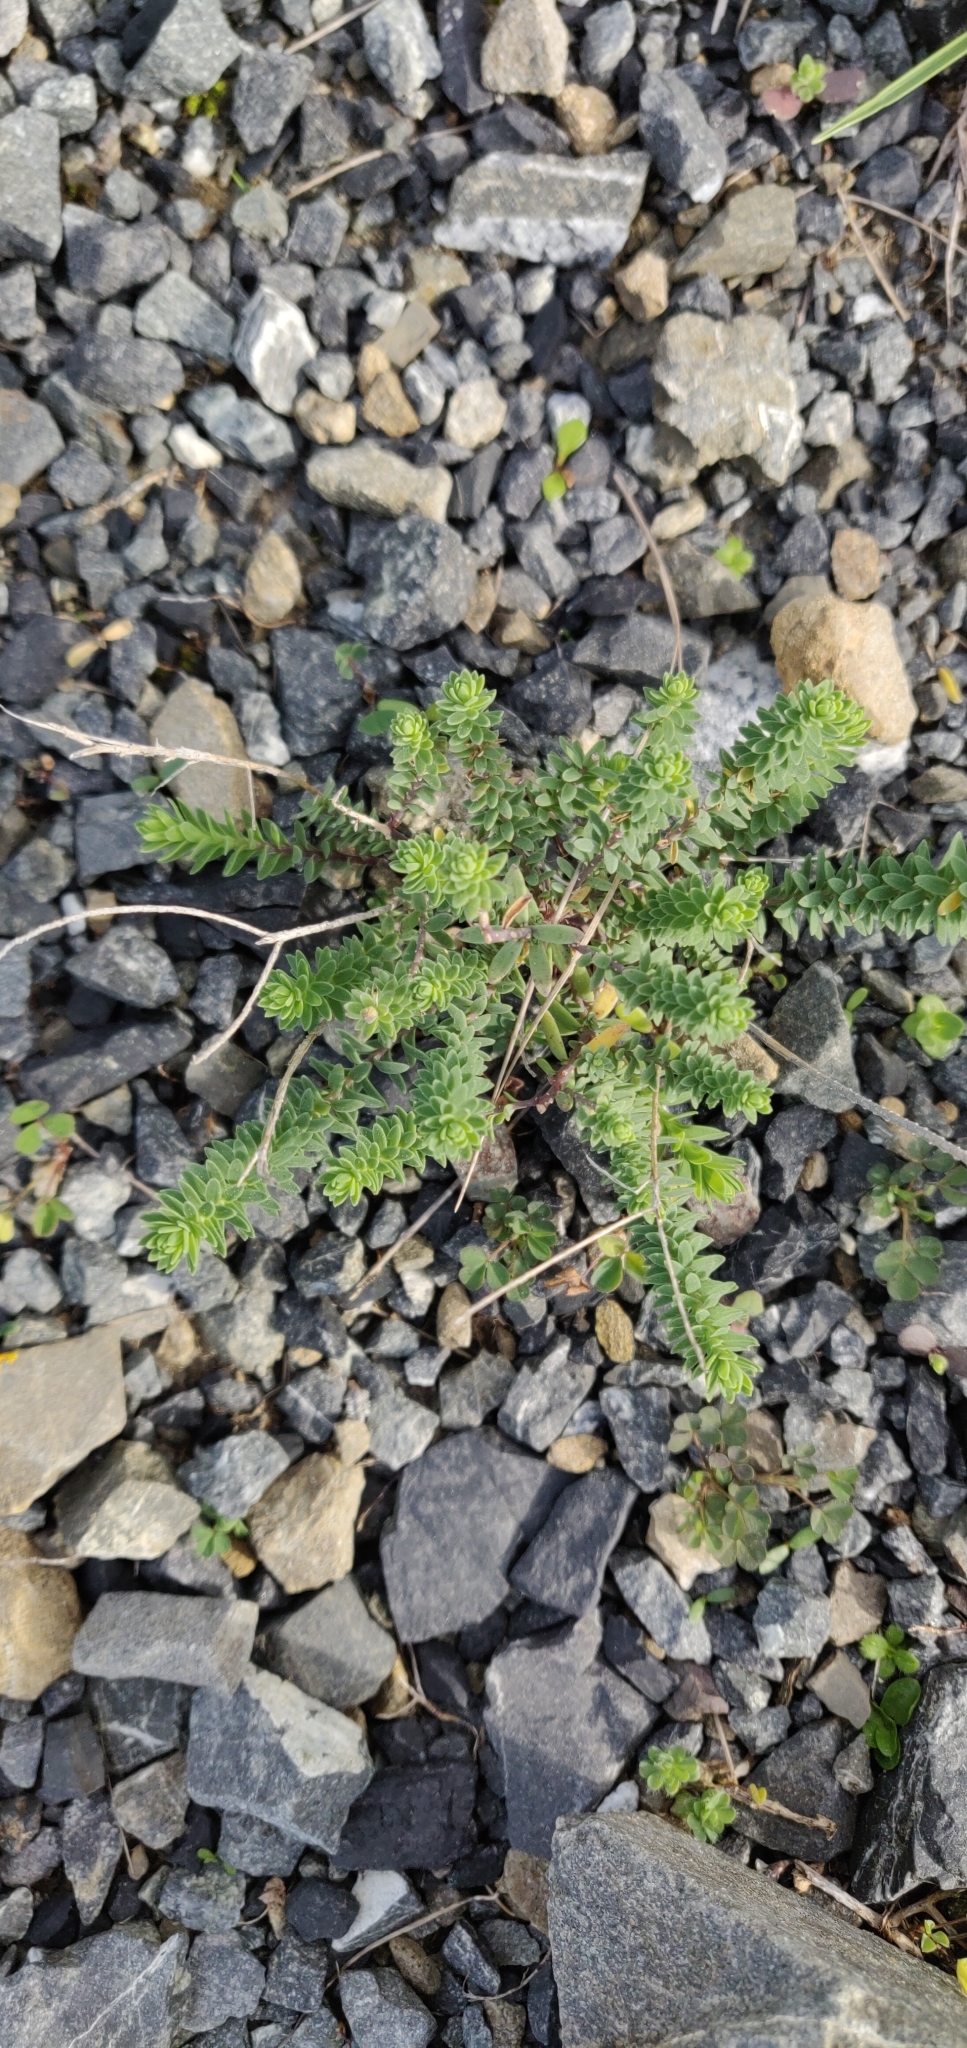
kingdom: Plantae
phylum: Tracheophyta
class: Magnoliopsida
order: Malpighiales
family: Linaceae
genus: Linum
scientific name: Linum monogynum
